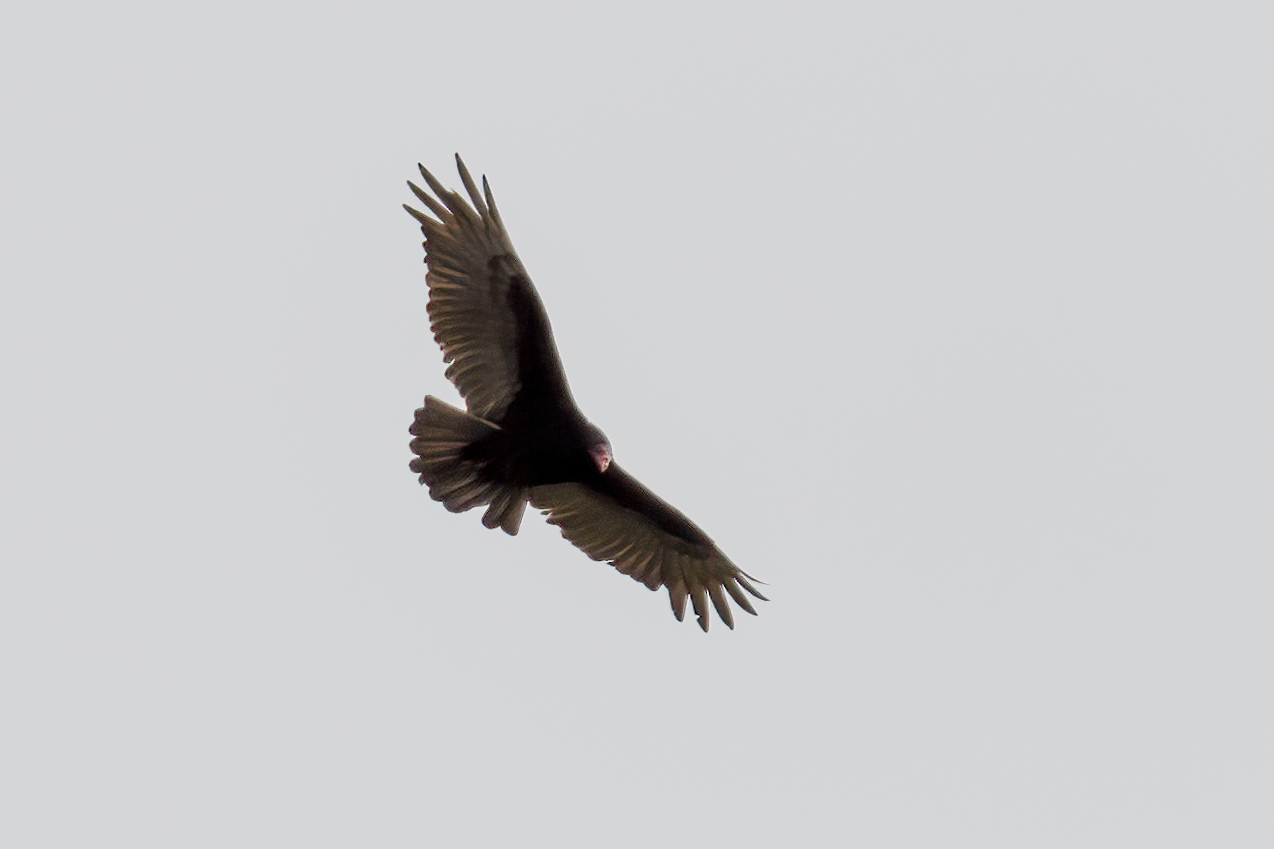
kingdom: Animalia
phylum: Chordata
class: Aves
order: Accipitriformes
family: Cathartidae
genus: Cathartes
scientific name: Cathartes aura
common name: Turkey vulture
